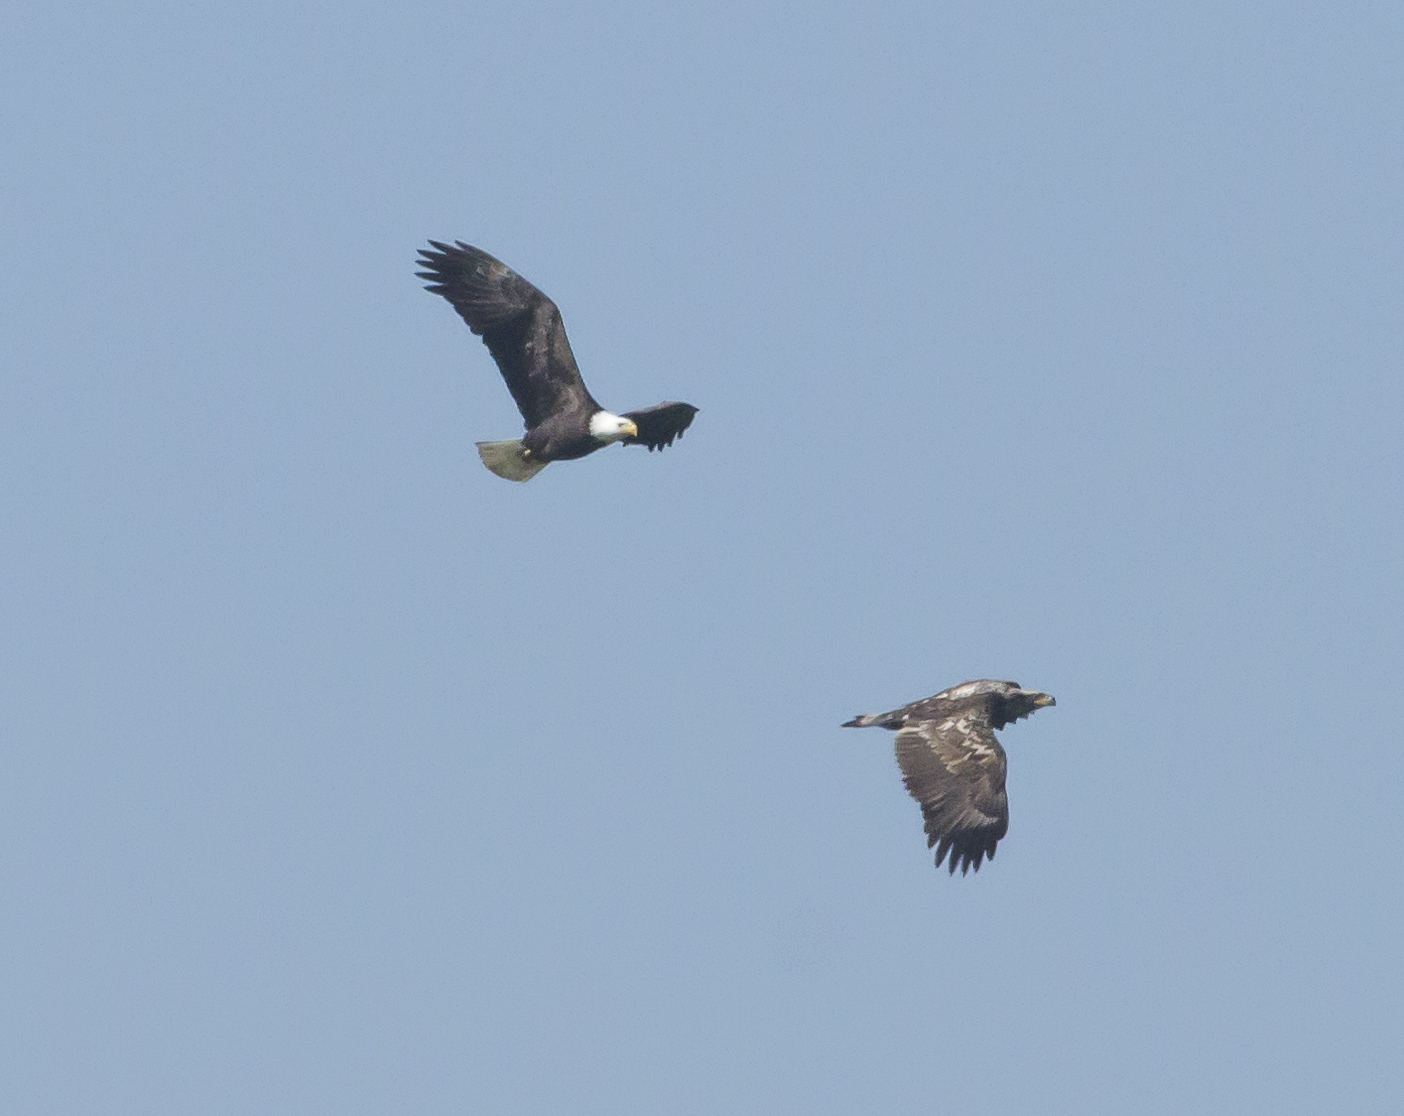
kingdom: Animalia
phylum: Chordata
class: Aves
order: Accipitriformes
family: Accipitridae
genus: Haliaeetus
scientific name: Haliaeetus leucocephalus
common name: Bald eagle
